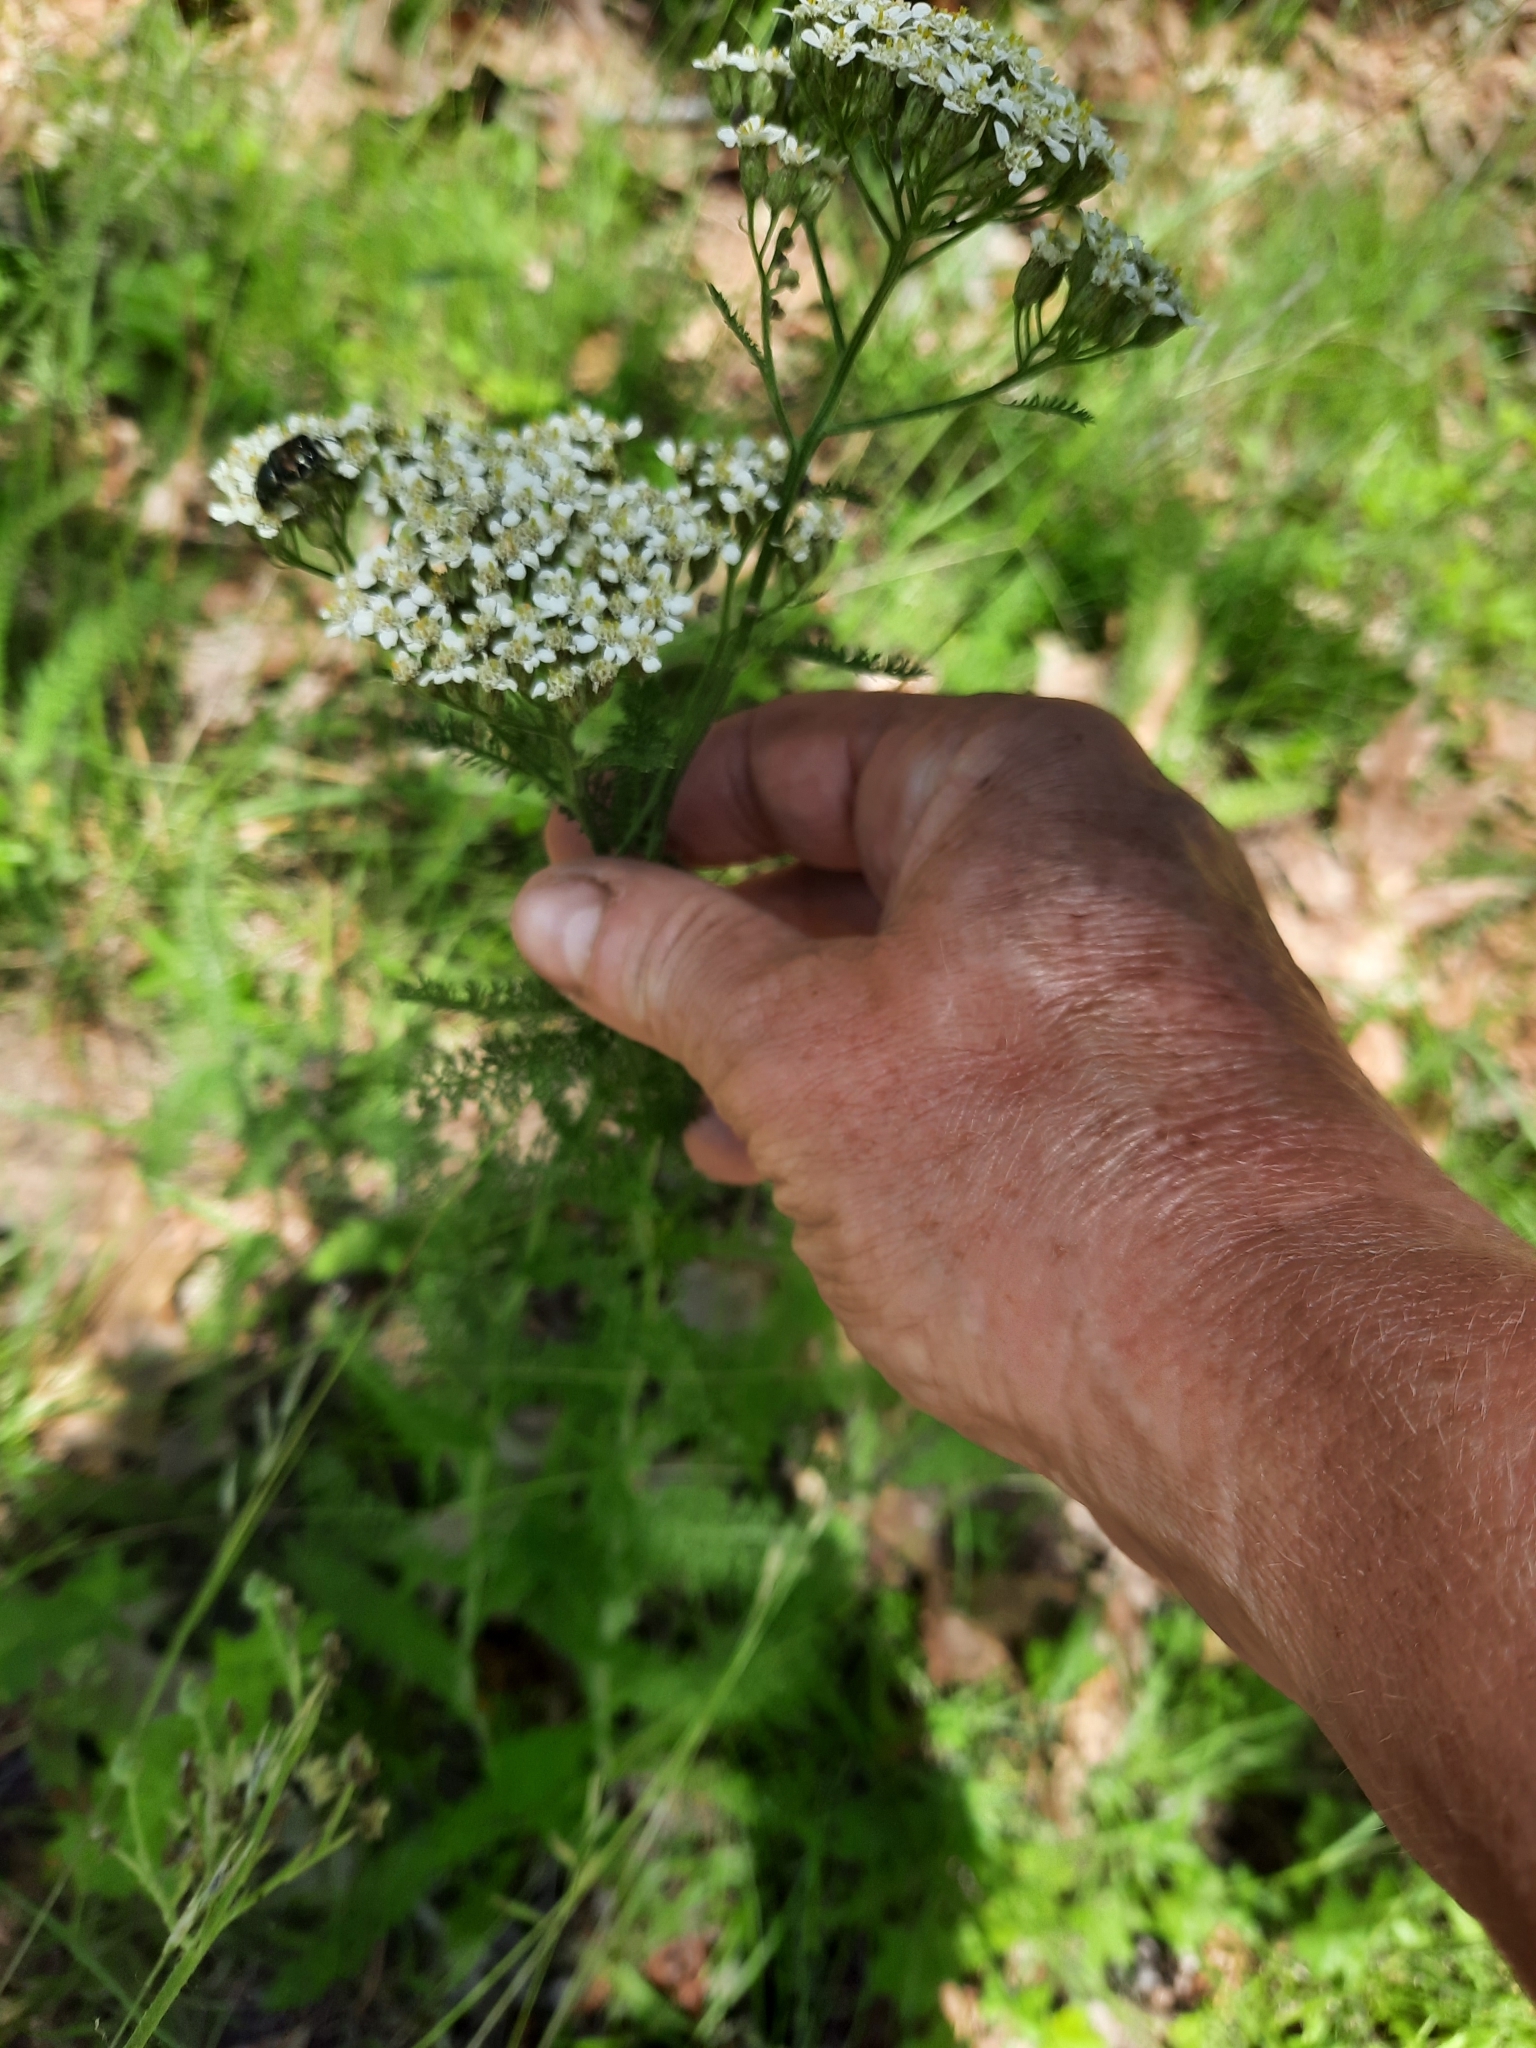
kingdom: Plantae
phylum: Tracheophyta
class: Magnoliopsida
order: Asterales
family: Asteraceae
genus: Achillea
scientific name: Achillea millefolium
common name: Yarrow
